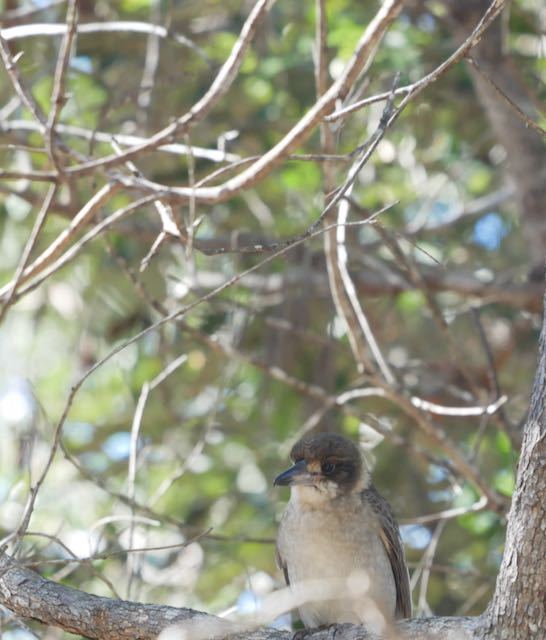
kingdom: Animalia
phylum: Chordata
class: Aves
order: Passeriformes
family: Cracticidae
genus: Cracticus
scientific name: Cracticus torquatus
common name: Grey butcherbird
